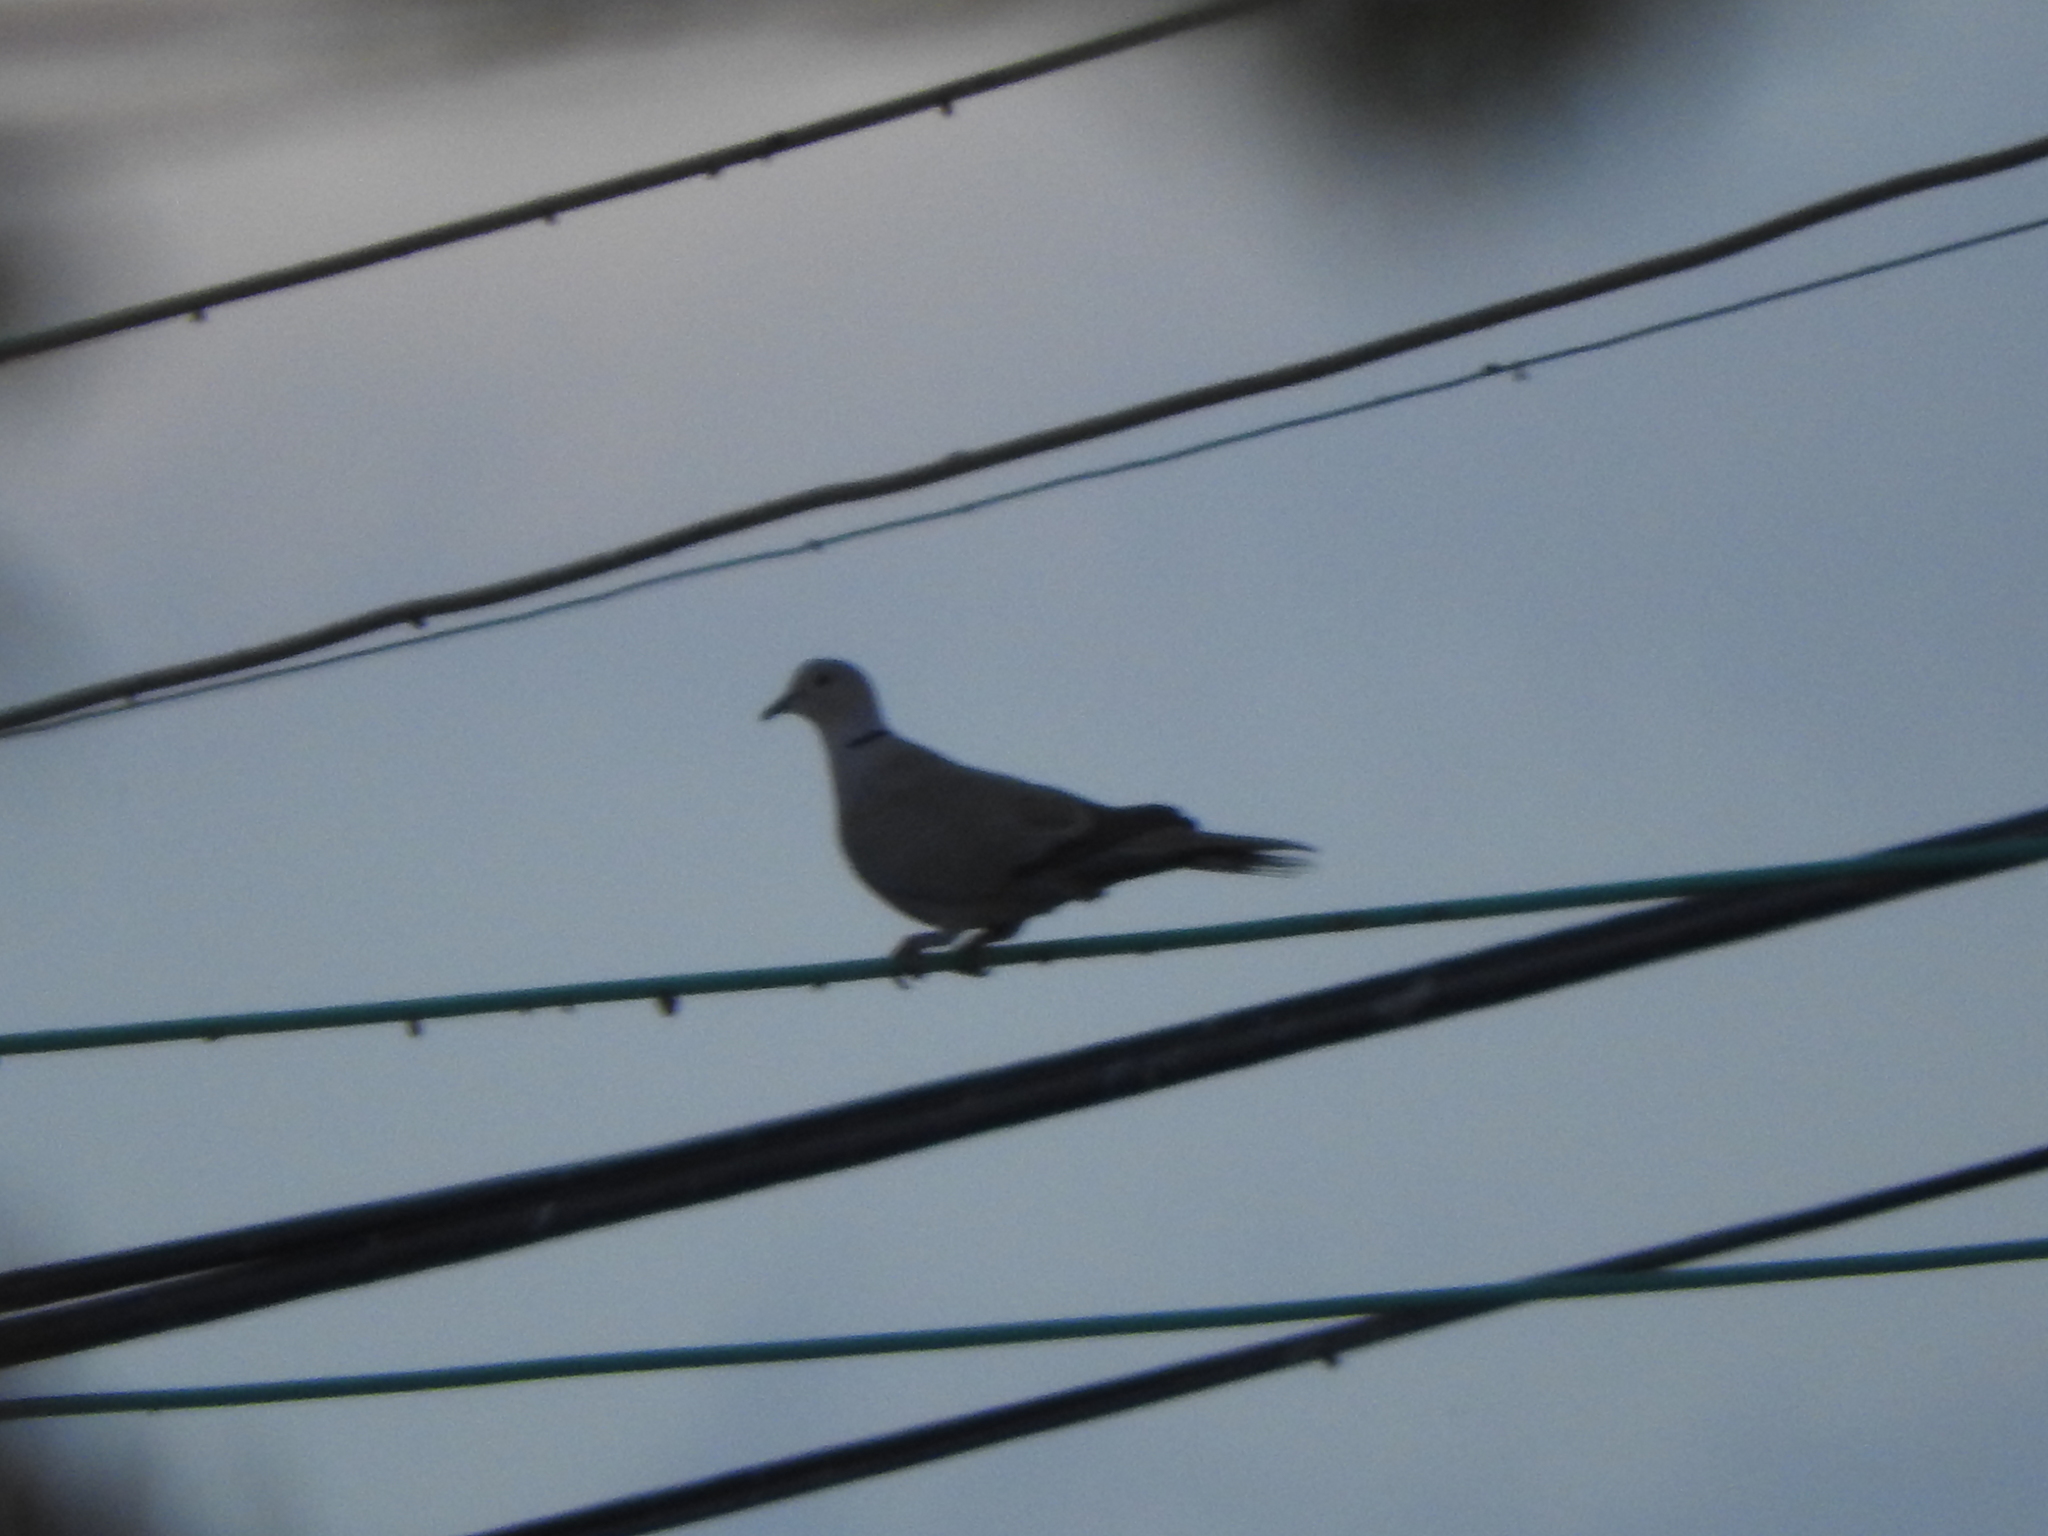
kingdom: Animalia
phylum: Chordata
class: Aves
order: Columbiformes
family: Columbidae
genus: Streptopelia
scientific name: Streptopelia decaocto
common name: Eurasian collared dove
